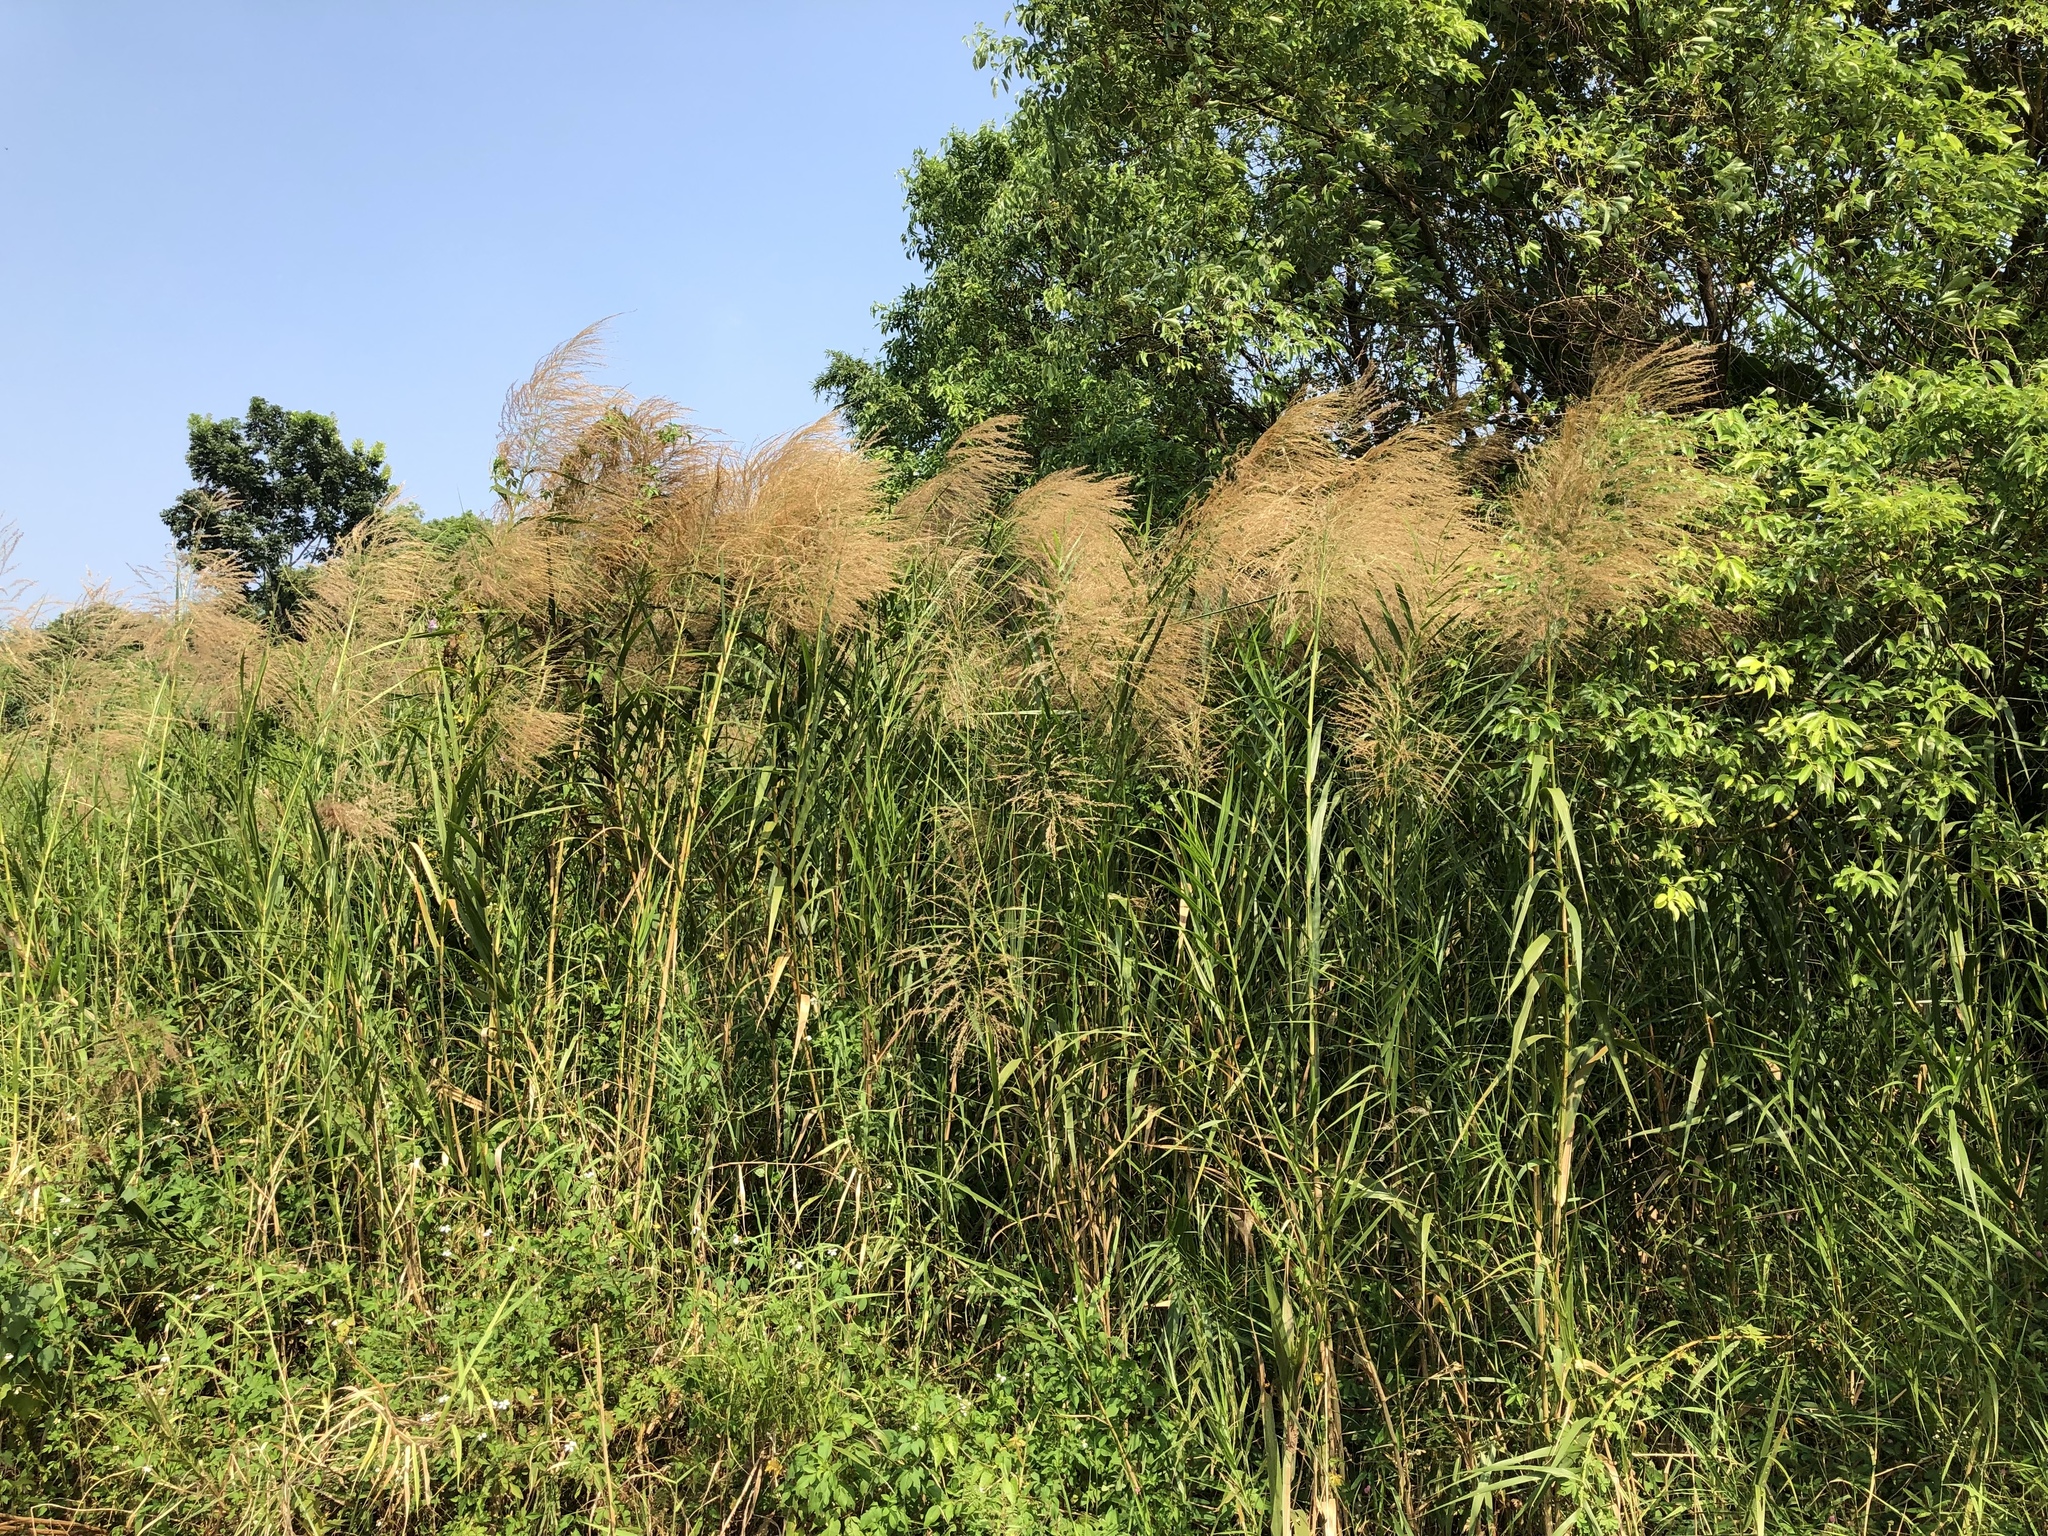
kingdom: Plantae
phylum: Tracheophyta
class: Liliopsida
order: Poales
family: Poaceae
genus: Phragmites
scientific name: Phragmites karka
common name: Tropical reed
